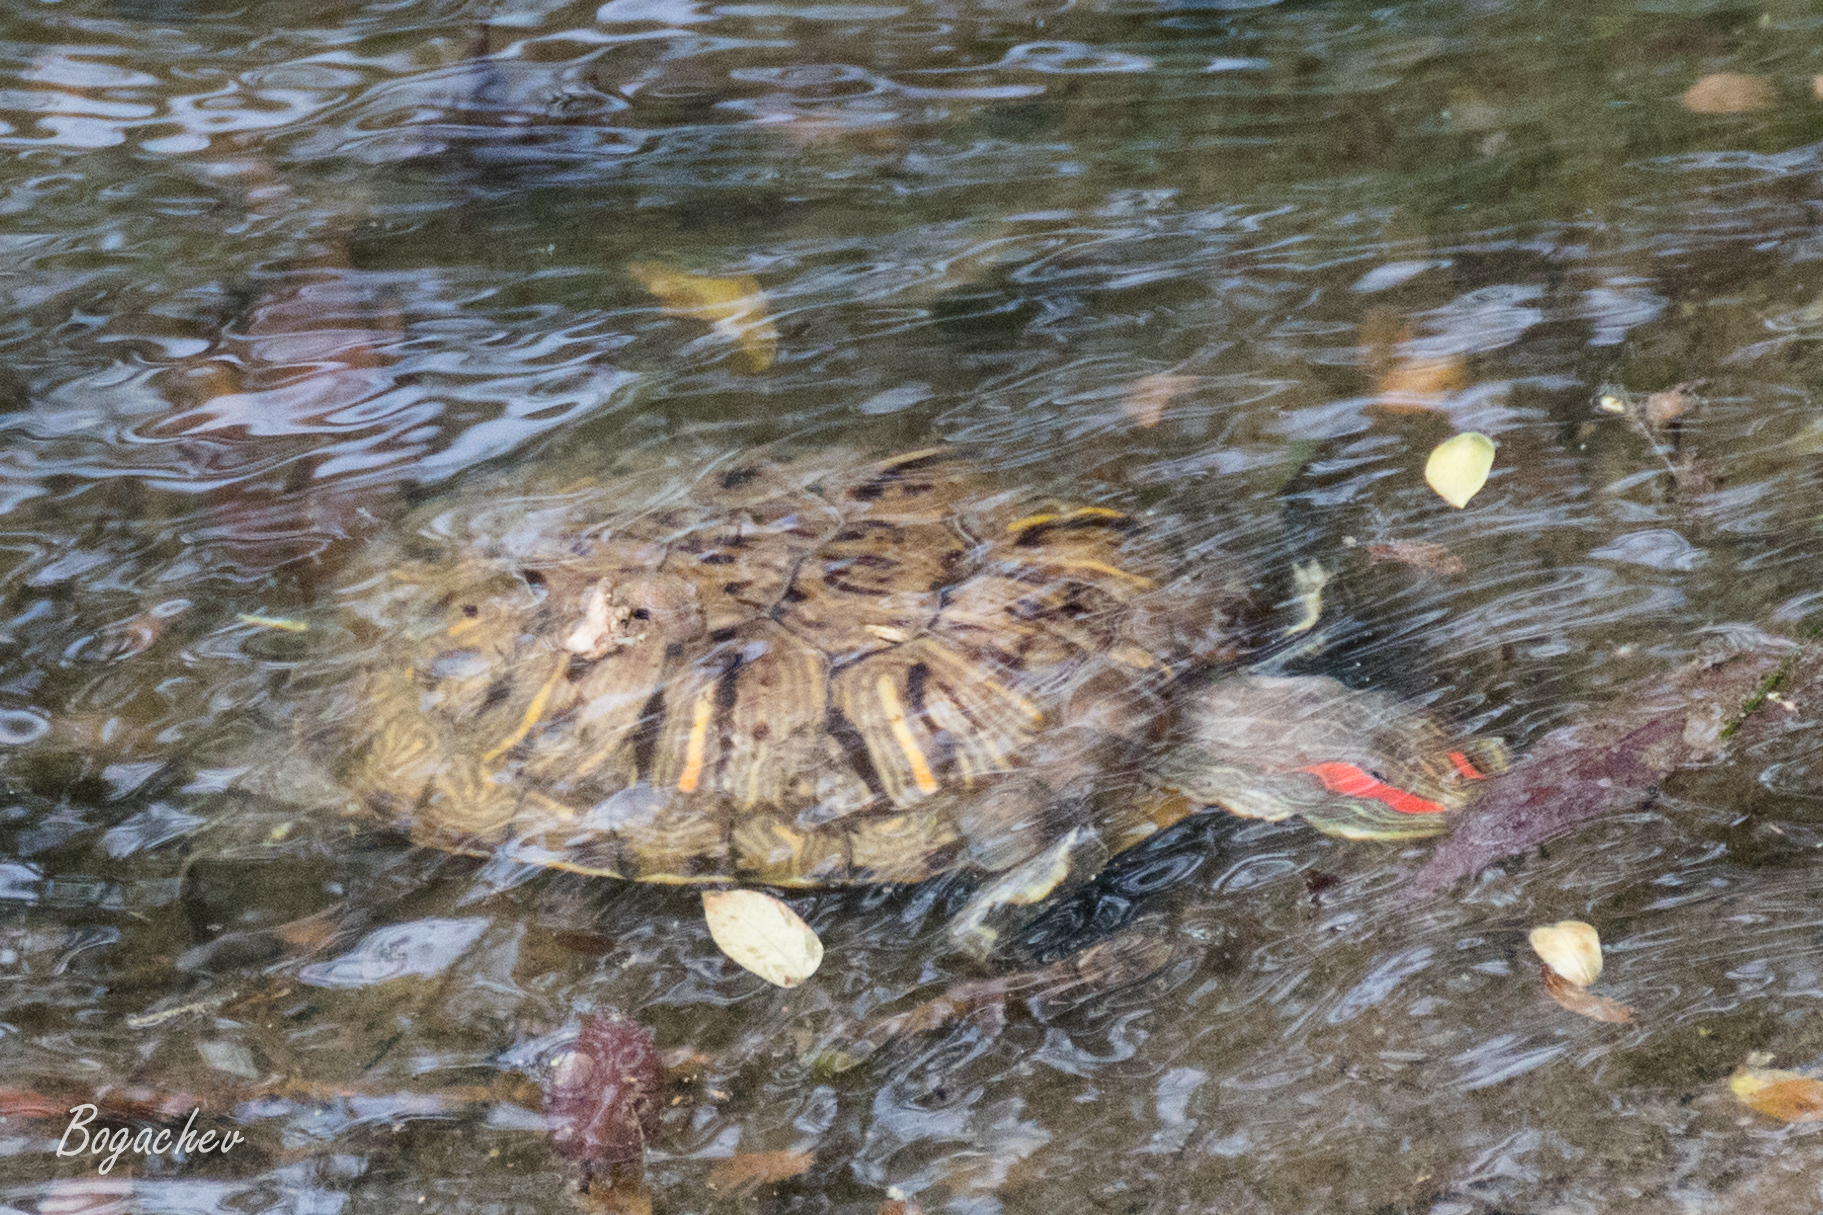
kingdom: Animalia
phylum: Chordata
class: Testudines
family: Emydidae
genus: Trachemys
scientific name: Trachemys scripta
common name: Slider
